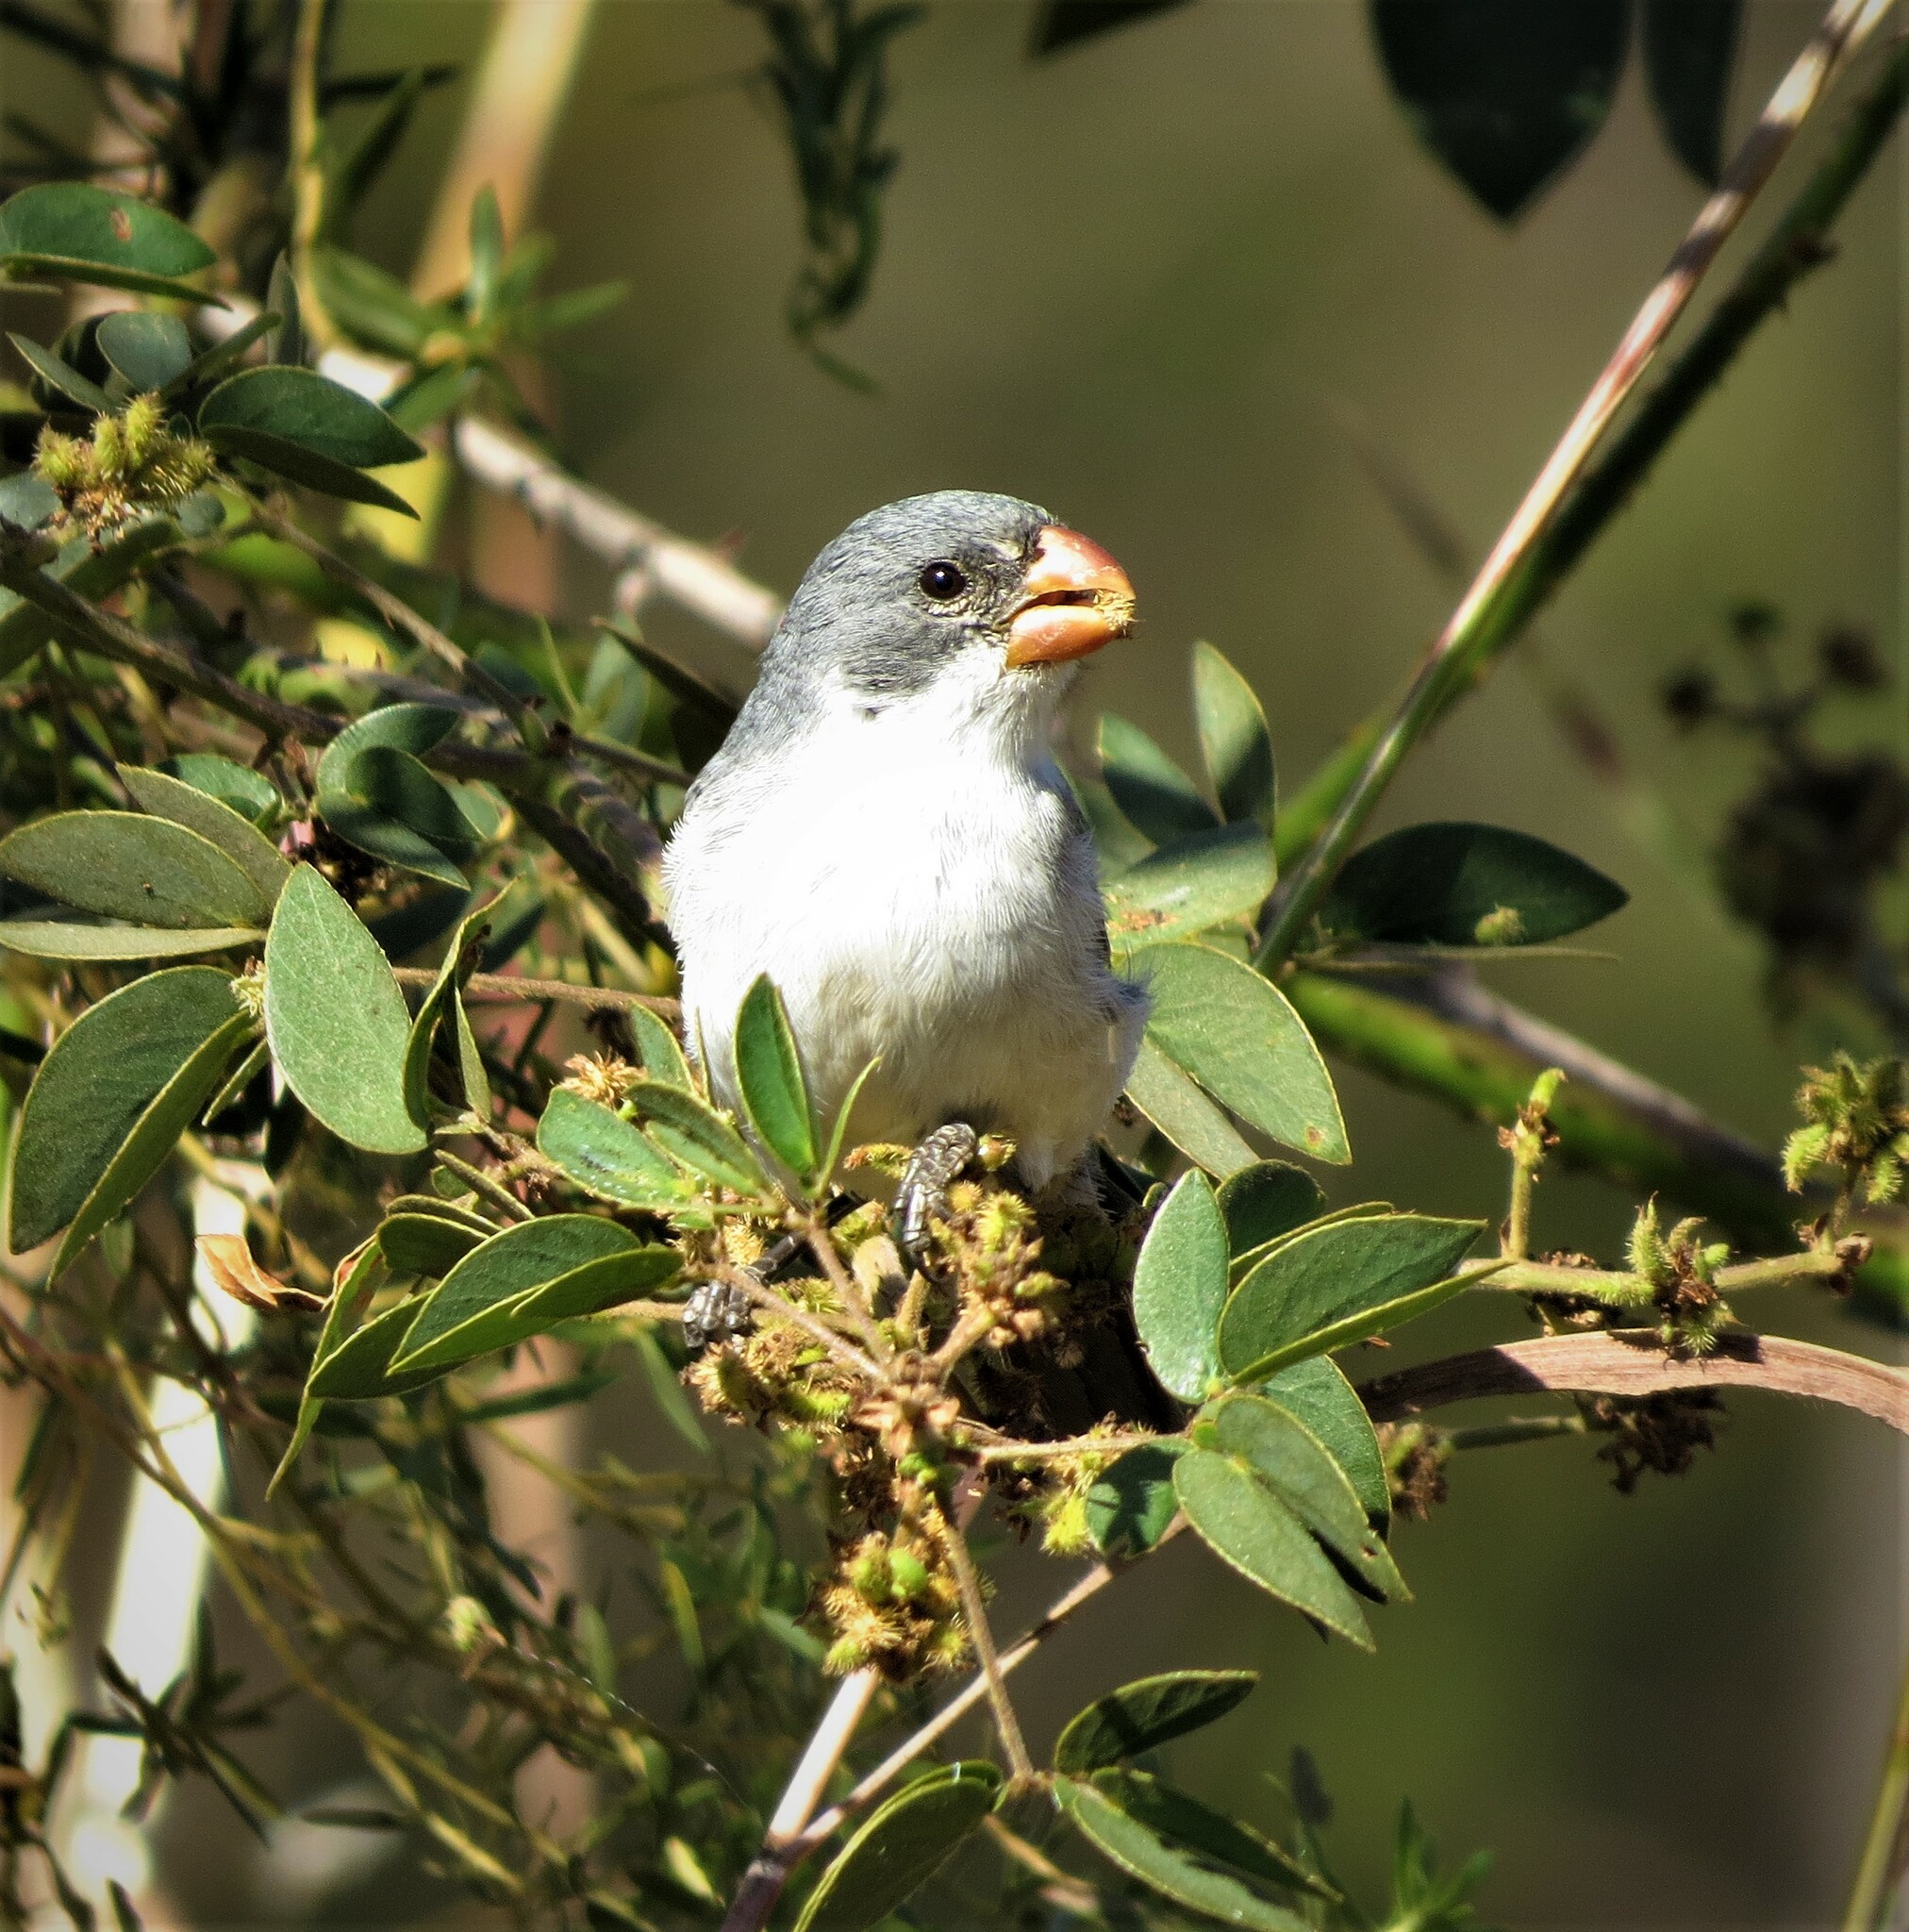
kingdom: Animalia
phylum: Chordata
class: Aves
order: Passeriformes
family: Thraupidae
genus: Sporophila
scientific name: Sporophila leucoptera
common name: White-bellied seedeater
